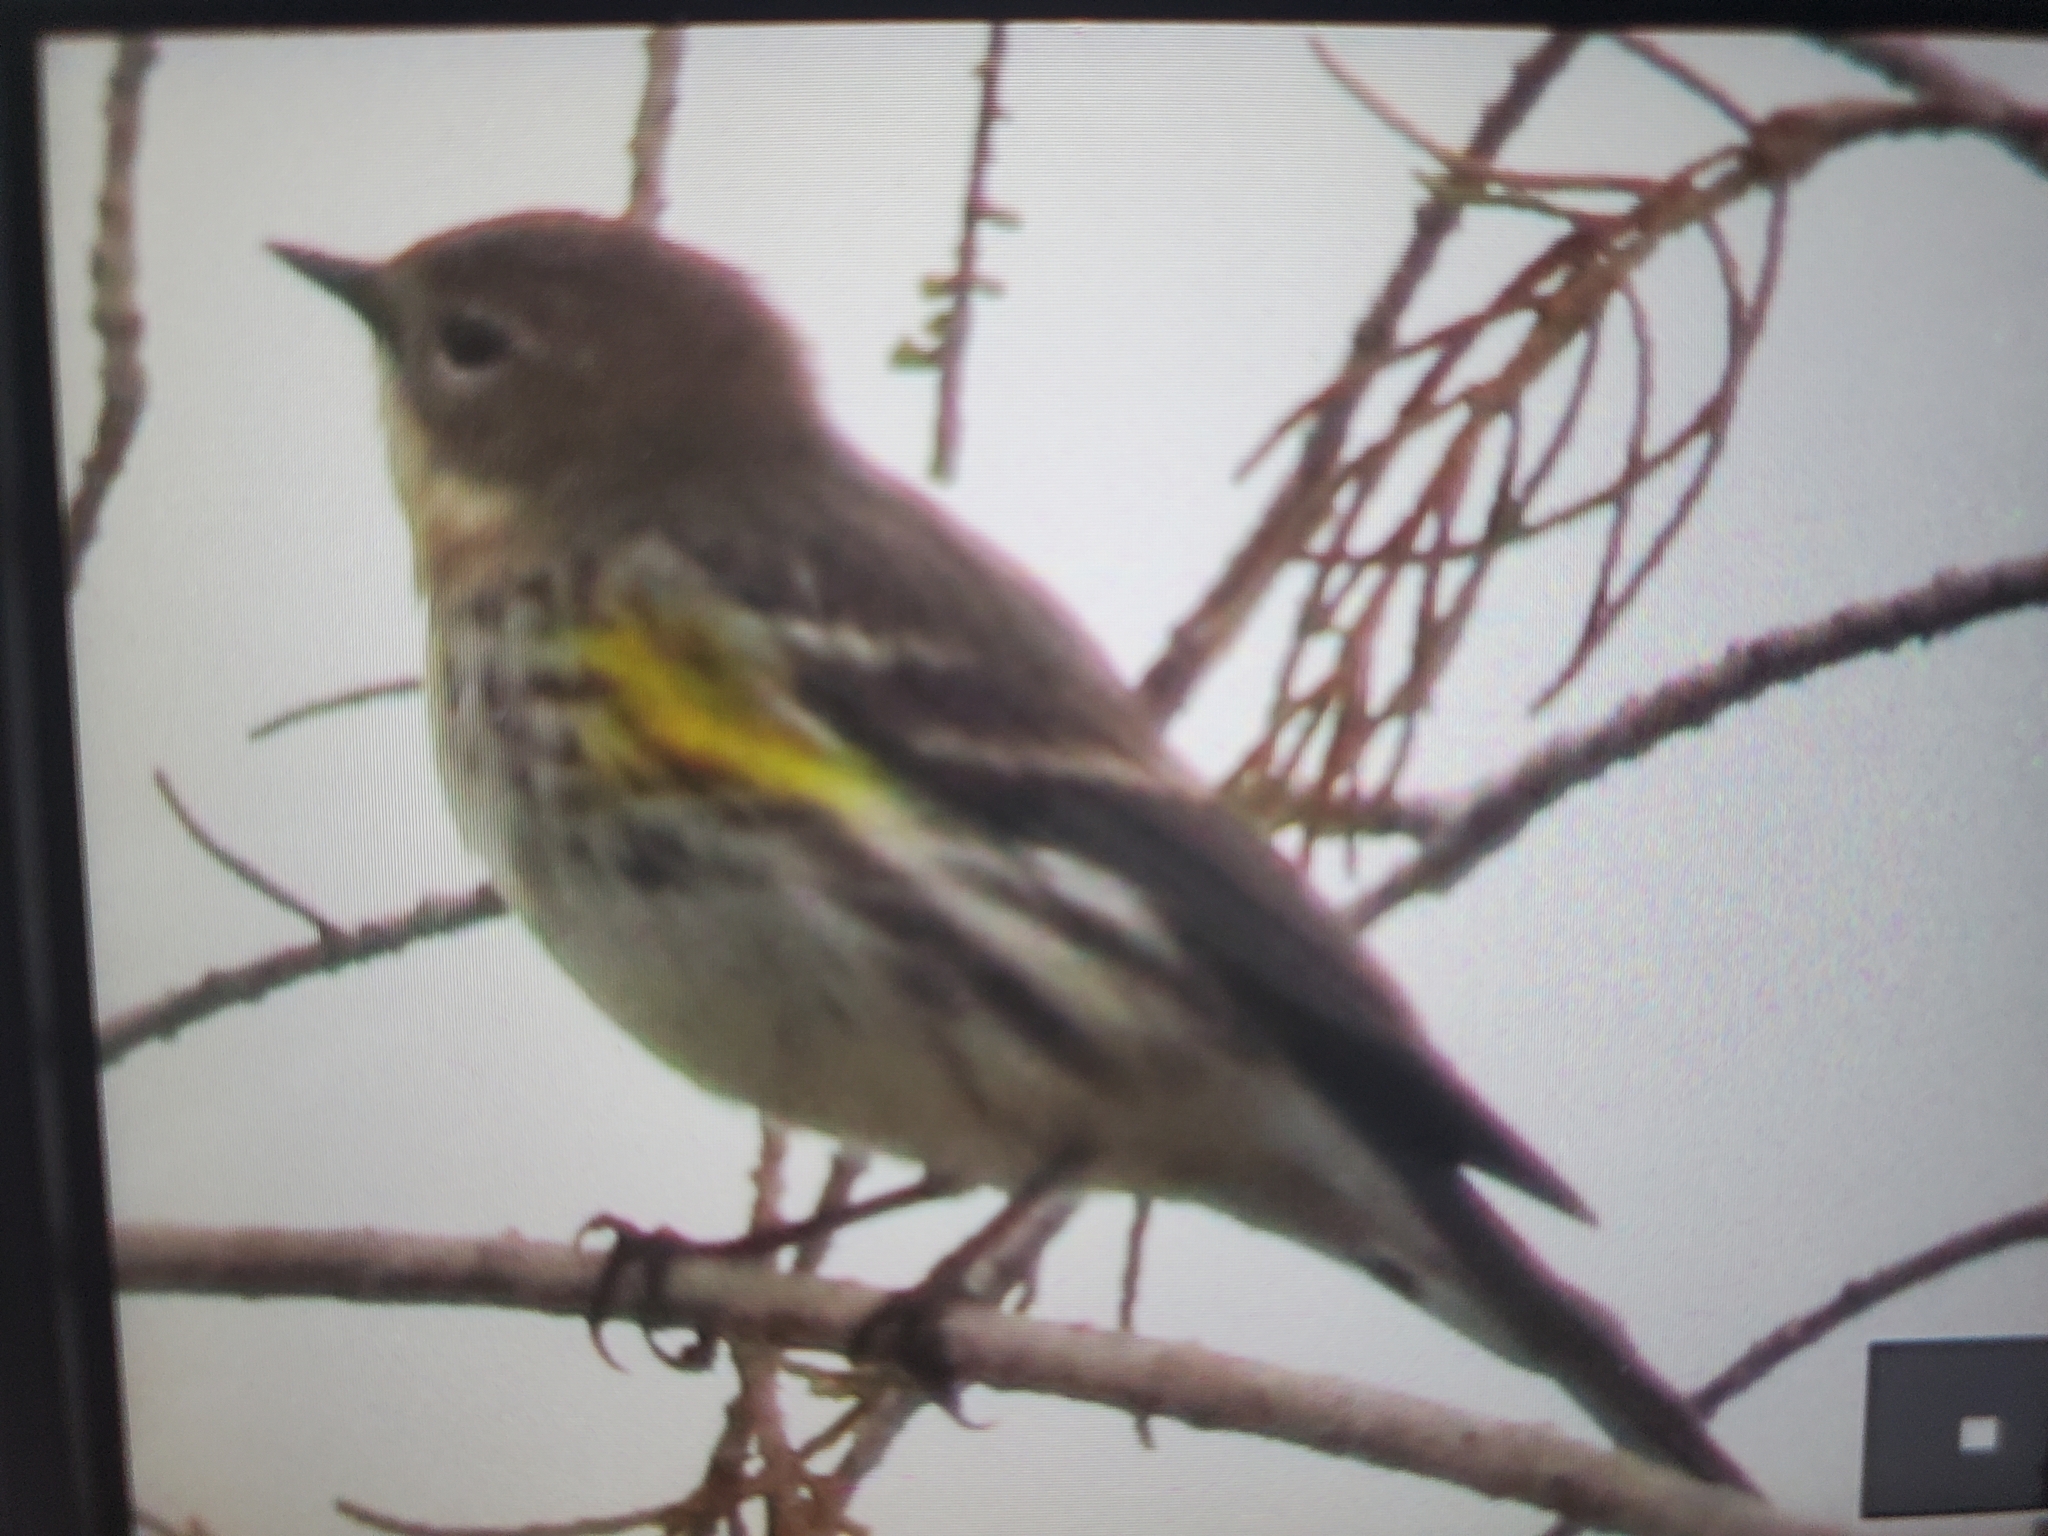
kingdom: Animalia
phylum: Chordata
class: Aves
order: Passeriformes
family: Parulidae
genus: Setophaga
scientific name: Setophaga coronata
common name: Myrtle warbler
